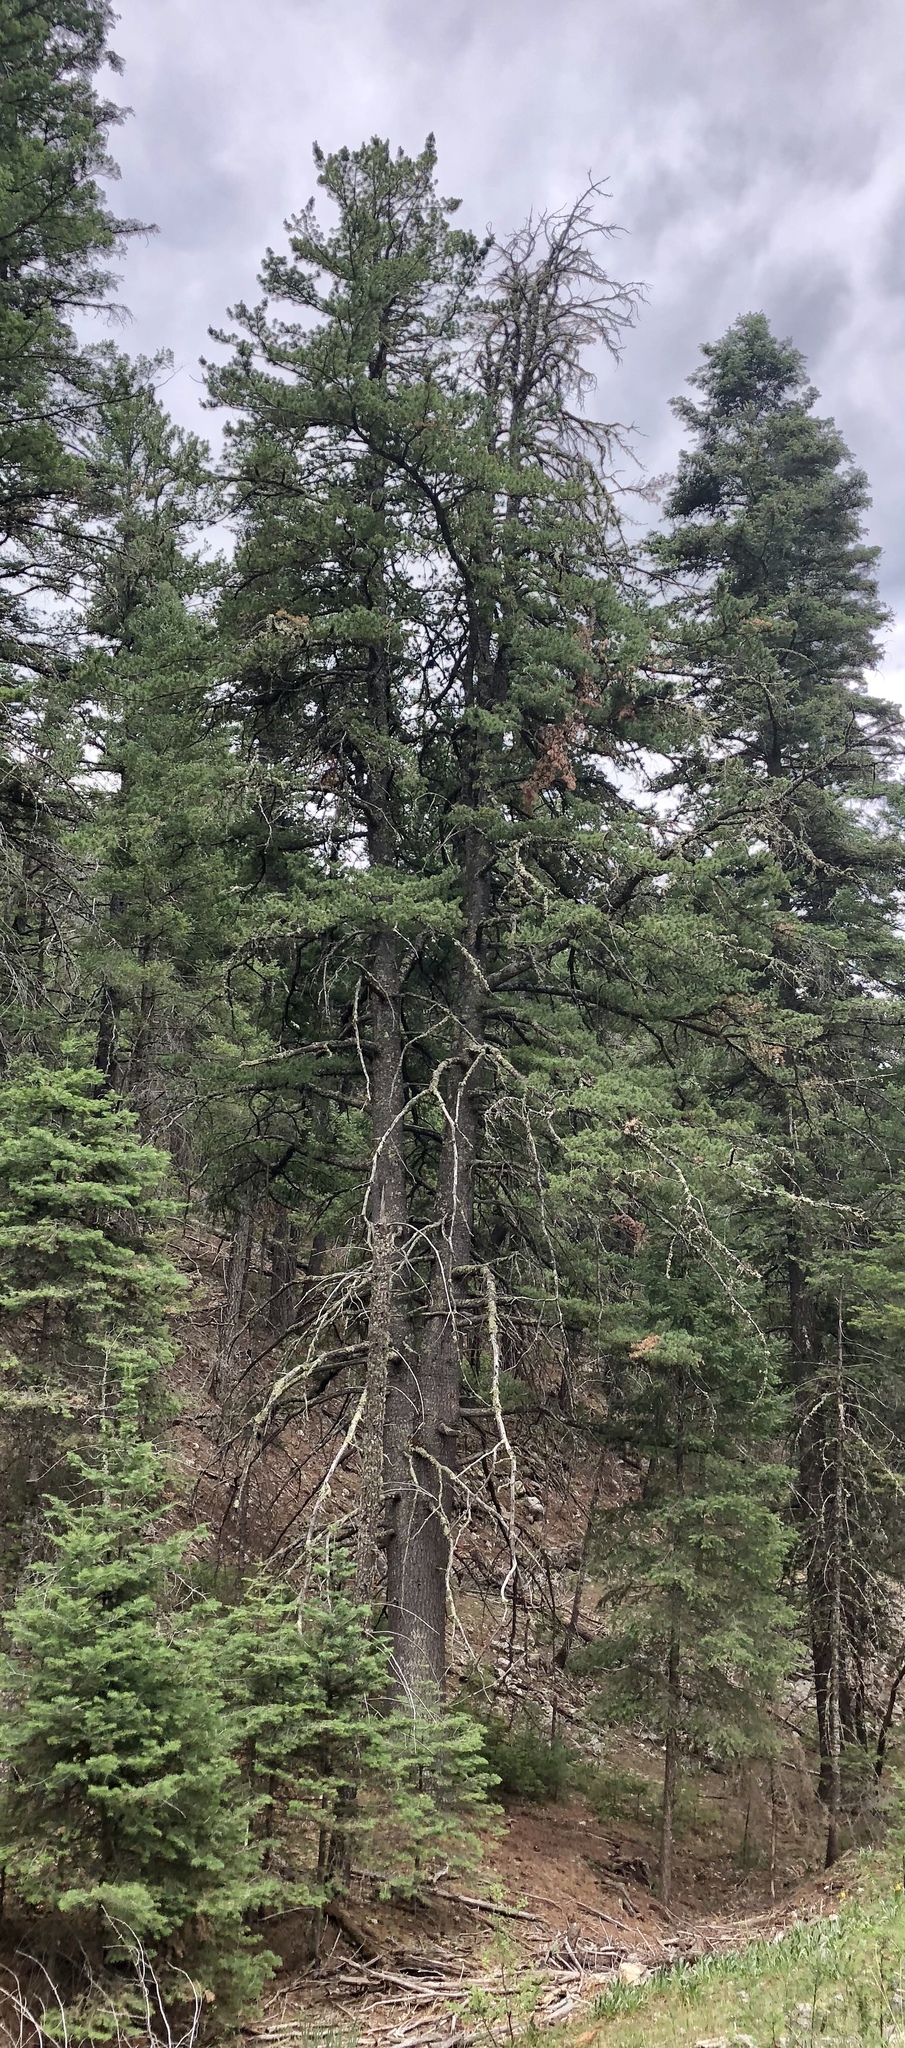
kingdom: Plantae
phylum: Tracheophyta
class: Pinopsida
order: Pinales
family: Pinaceae
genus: Pinus
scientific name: Pinus strobiformis
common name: Southwestern white pine
